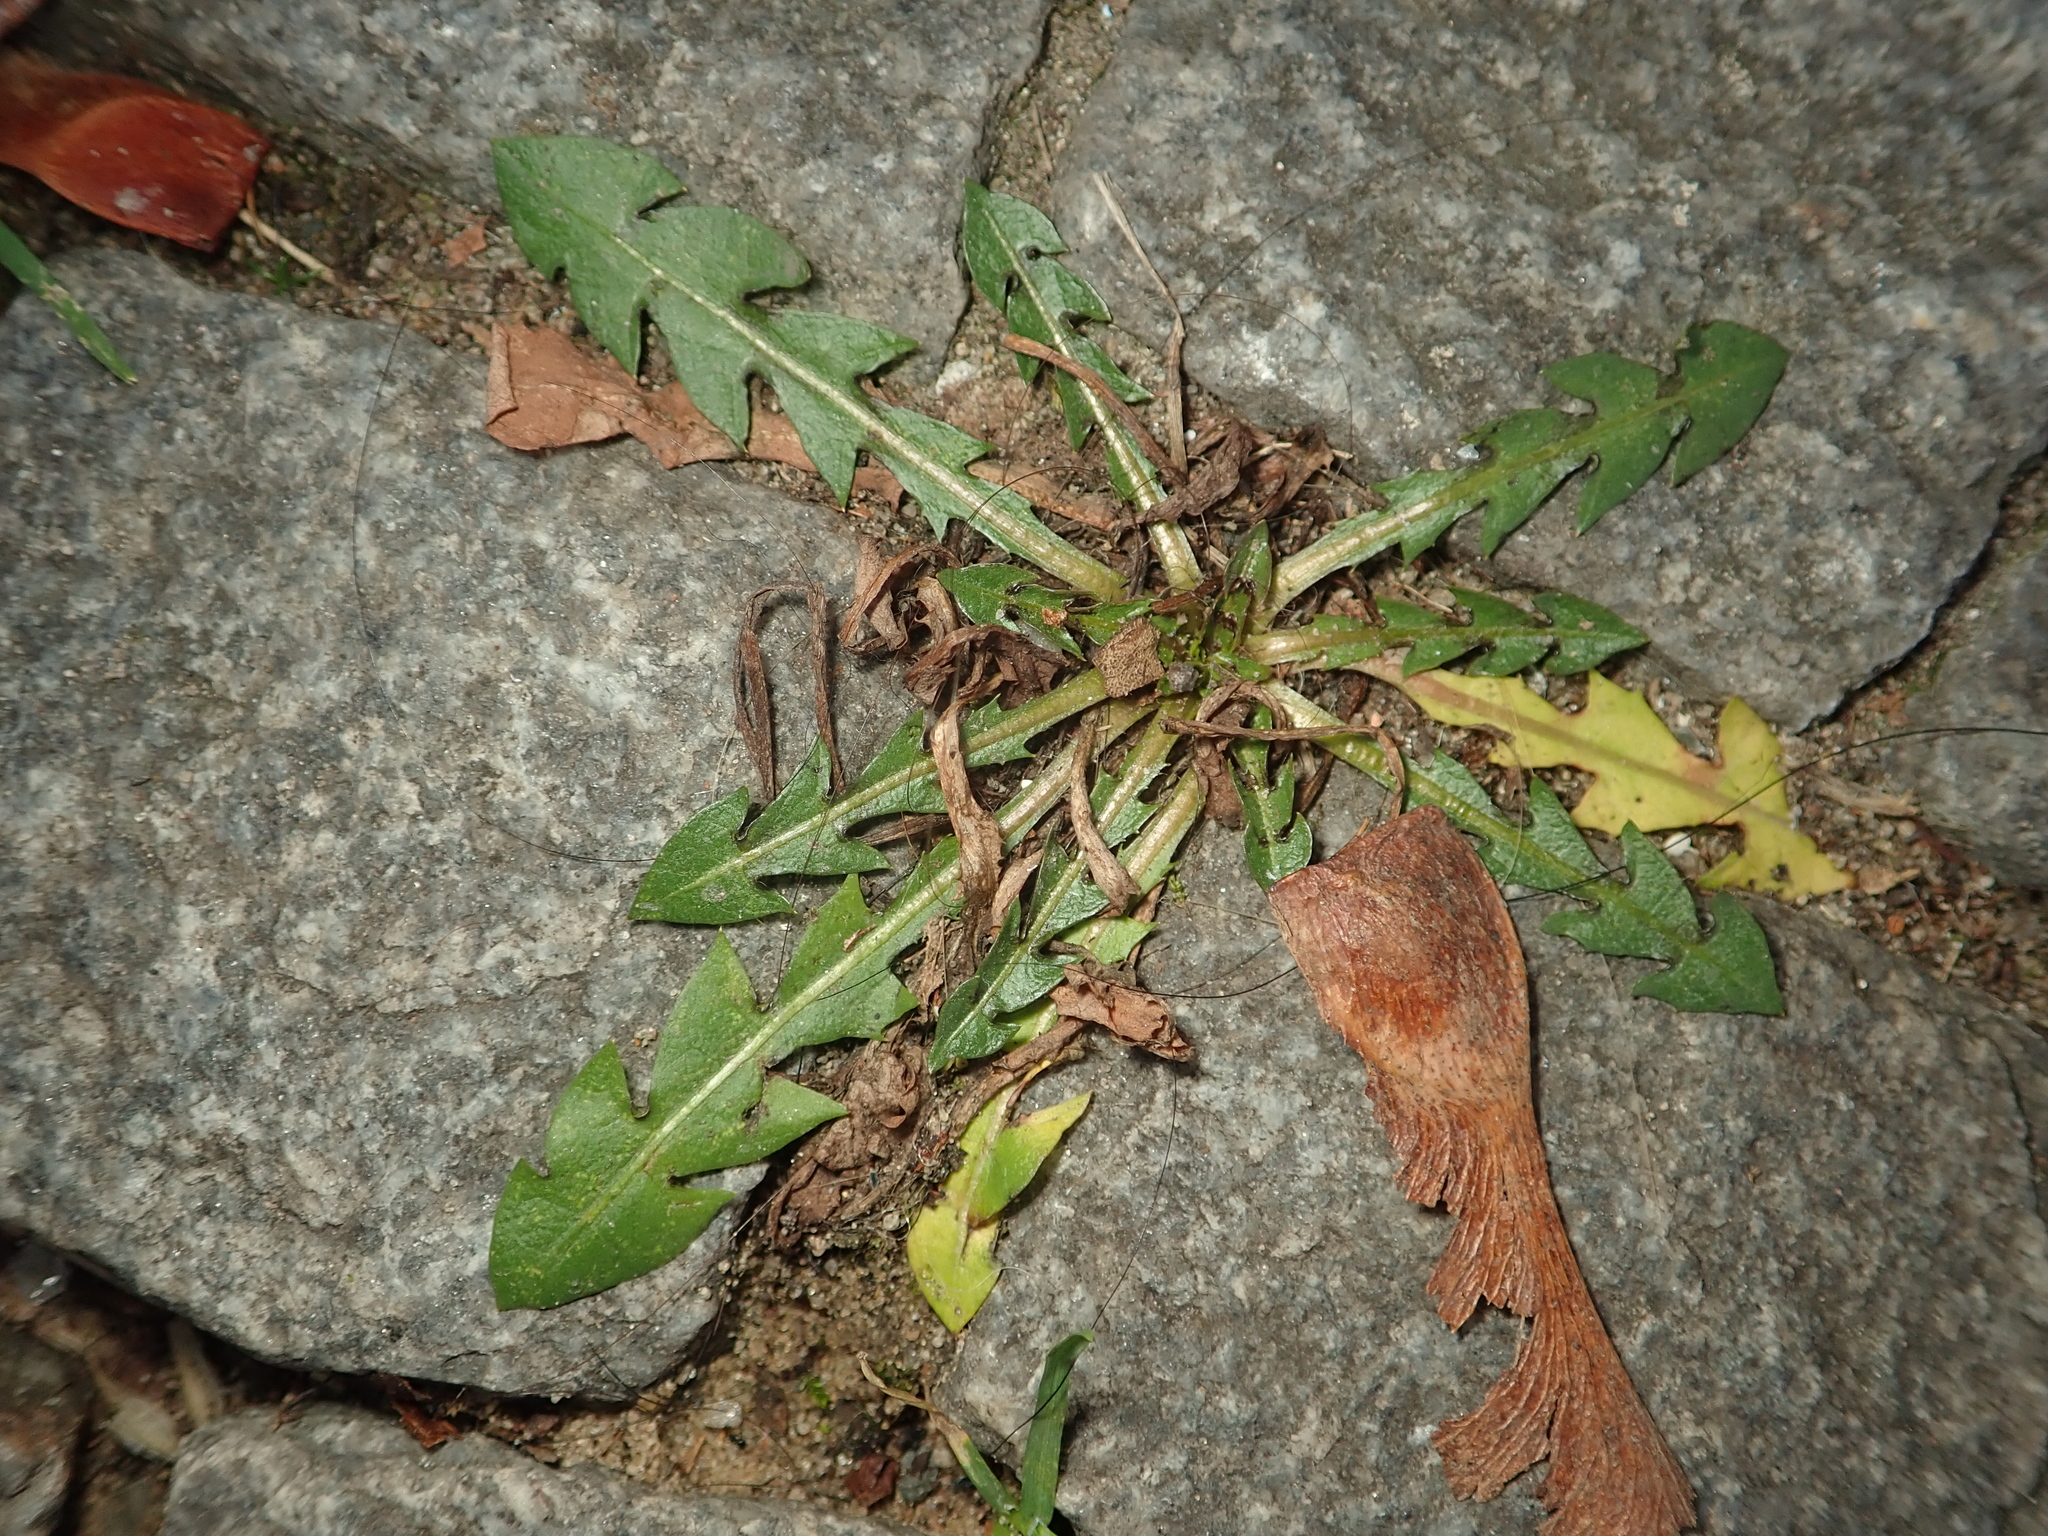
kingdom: Plantae
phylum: Tracheophyta
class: Magnoliopsida
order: Asterales
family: Asteraceae
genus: Taraxacum
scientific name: Taraxacum officinale
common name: Common dandelion
